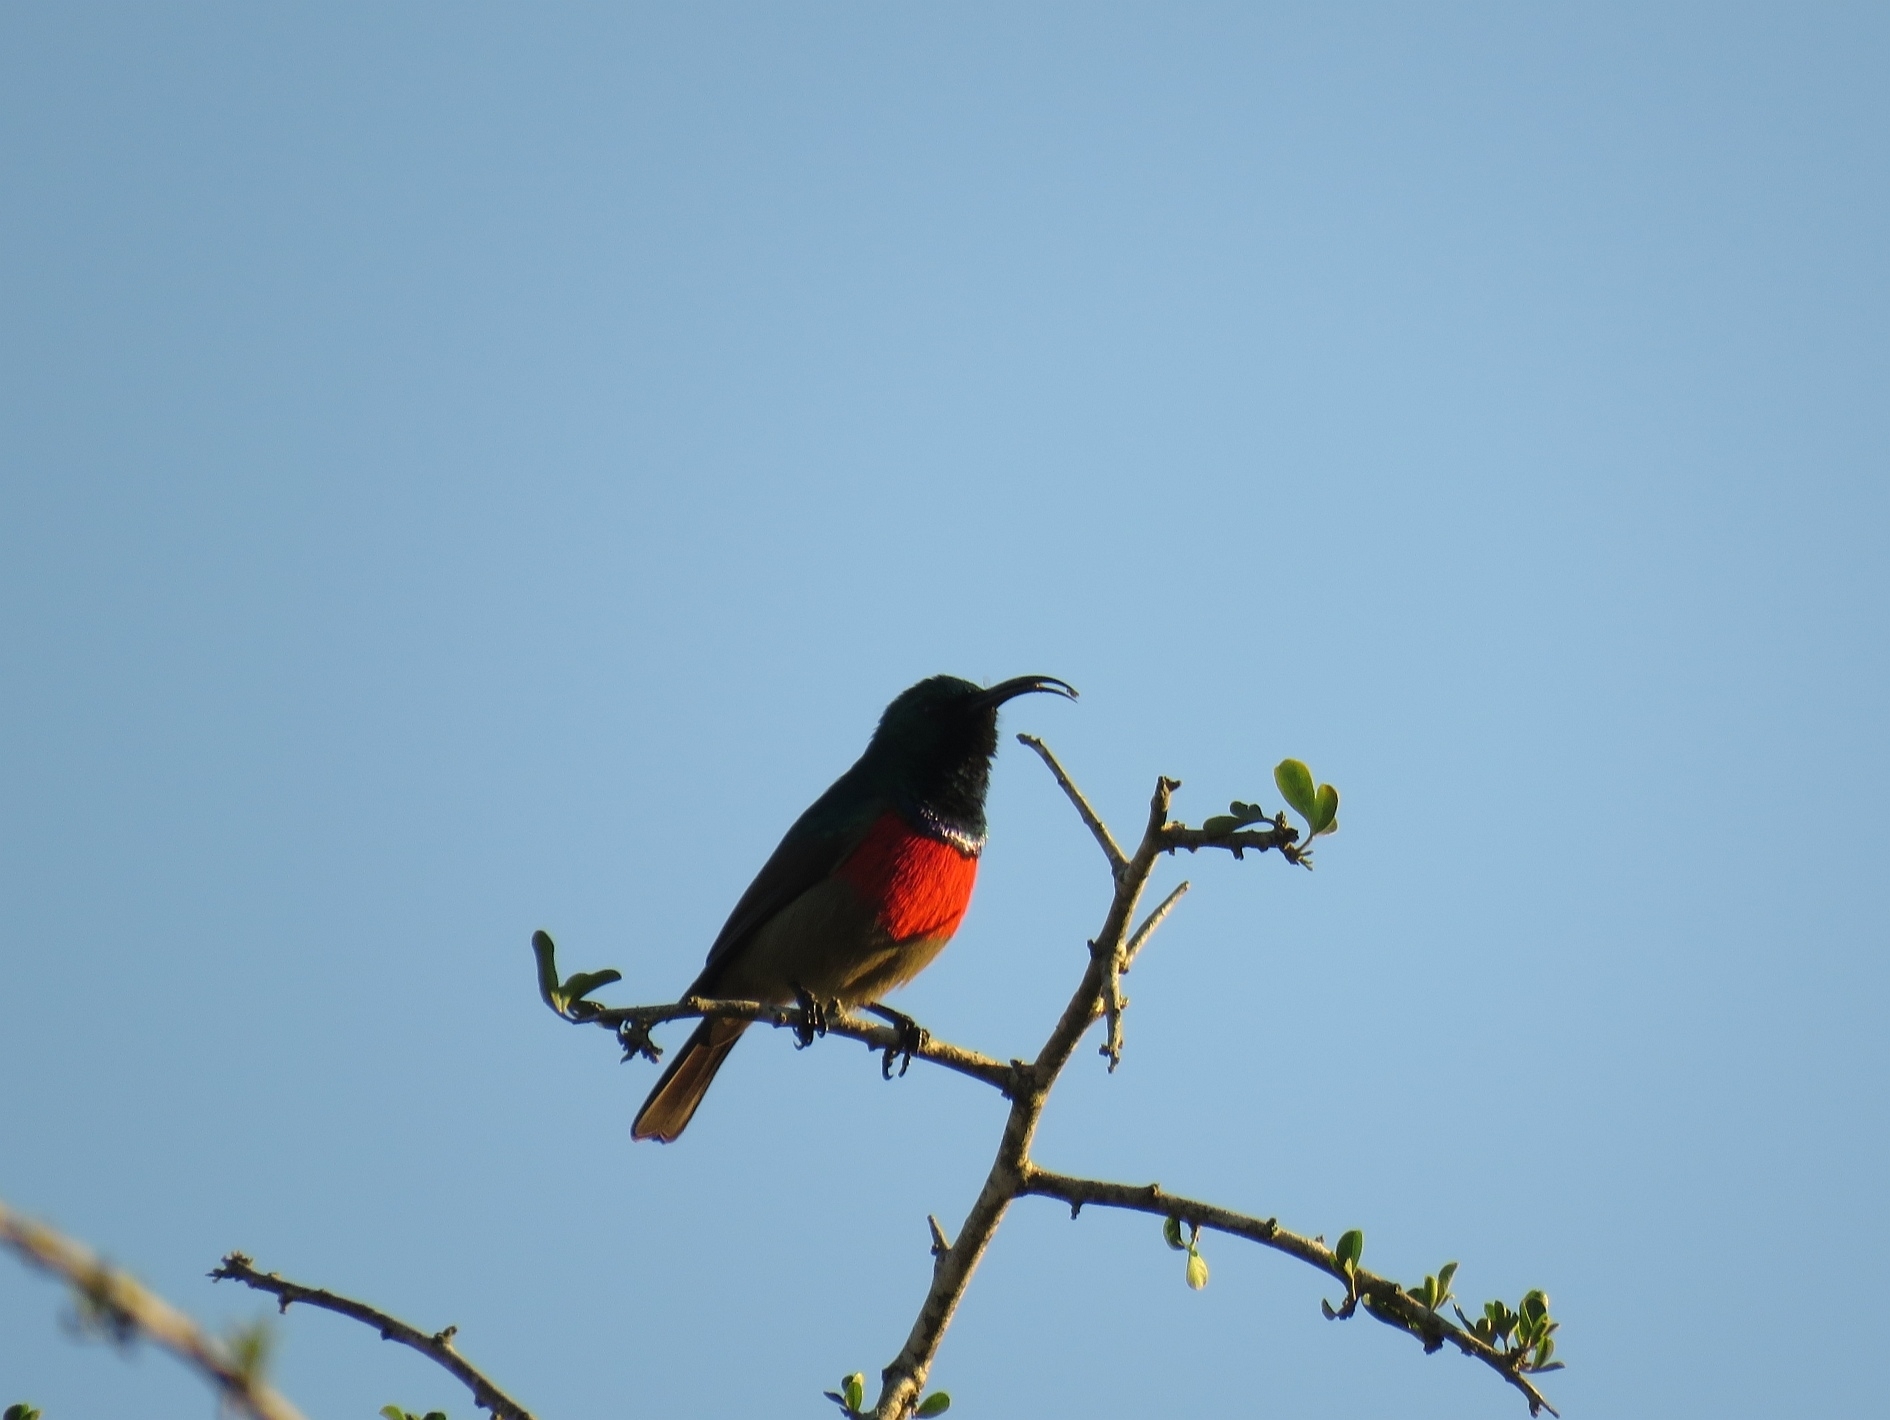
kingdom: Animalia
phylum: Chordata
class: Aves
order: Passeriformes
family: Nectariniidae
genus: Cinnyris
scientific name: Cinnyris afer
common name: Greater double-collared sunbird
